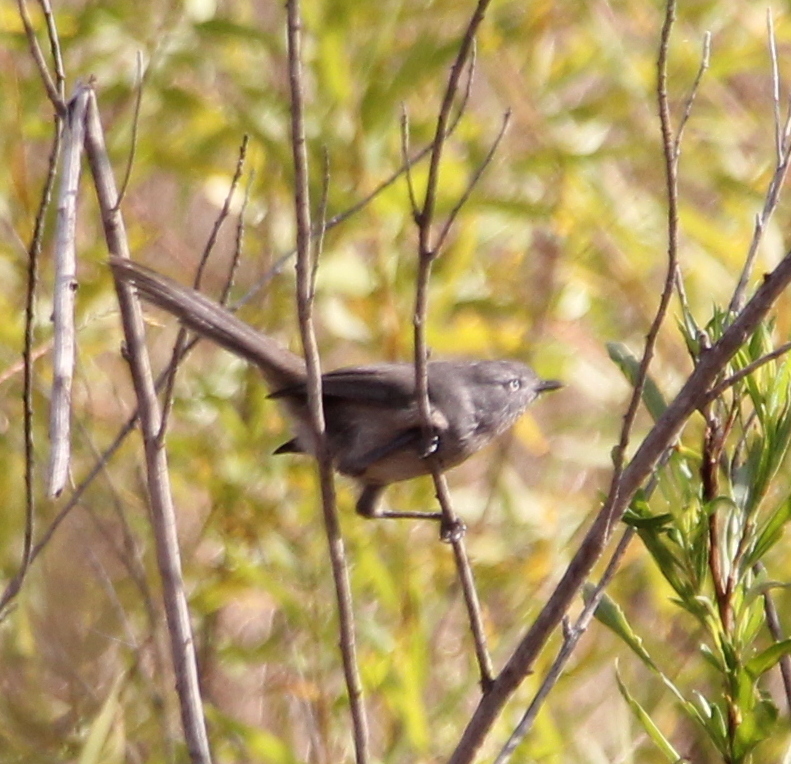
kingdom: Animalia
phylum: Chordata
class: Aves
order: Passeriformes
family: Sylviidae
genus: Chamaea
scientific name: Chamaea fasciata
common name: Wrentit
